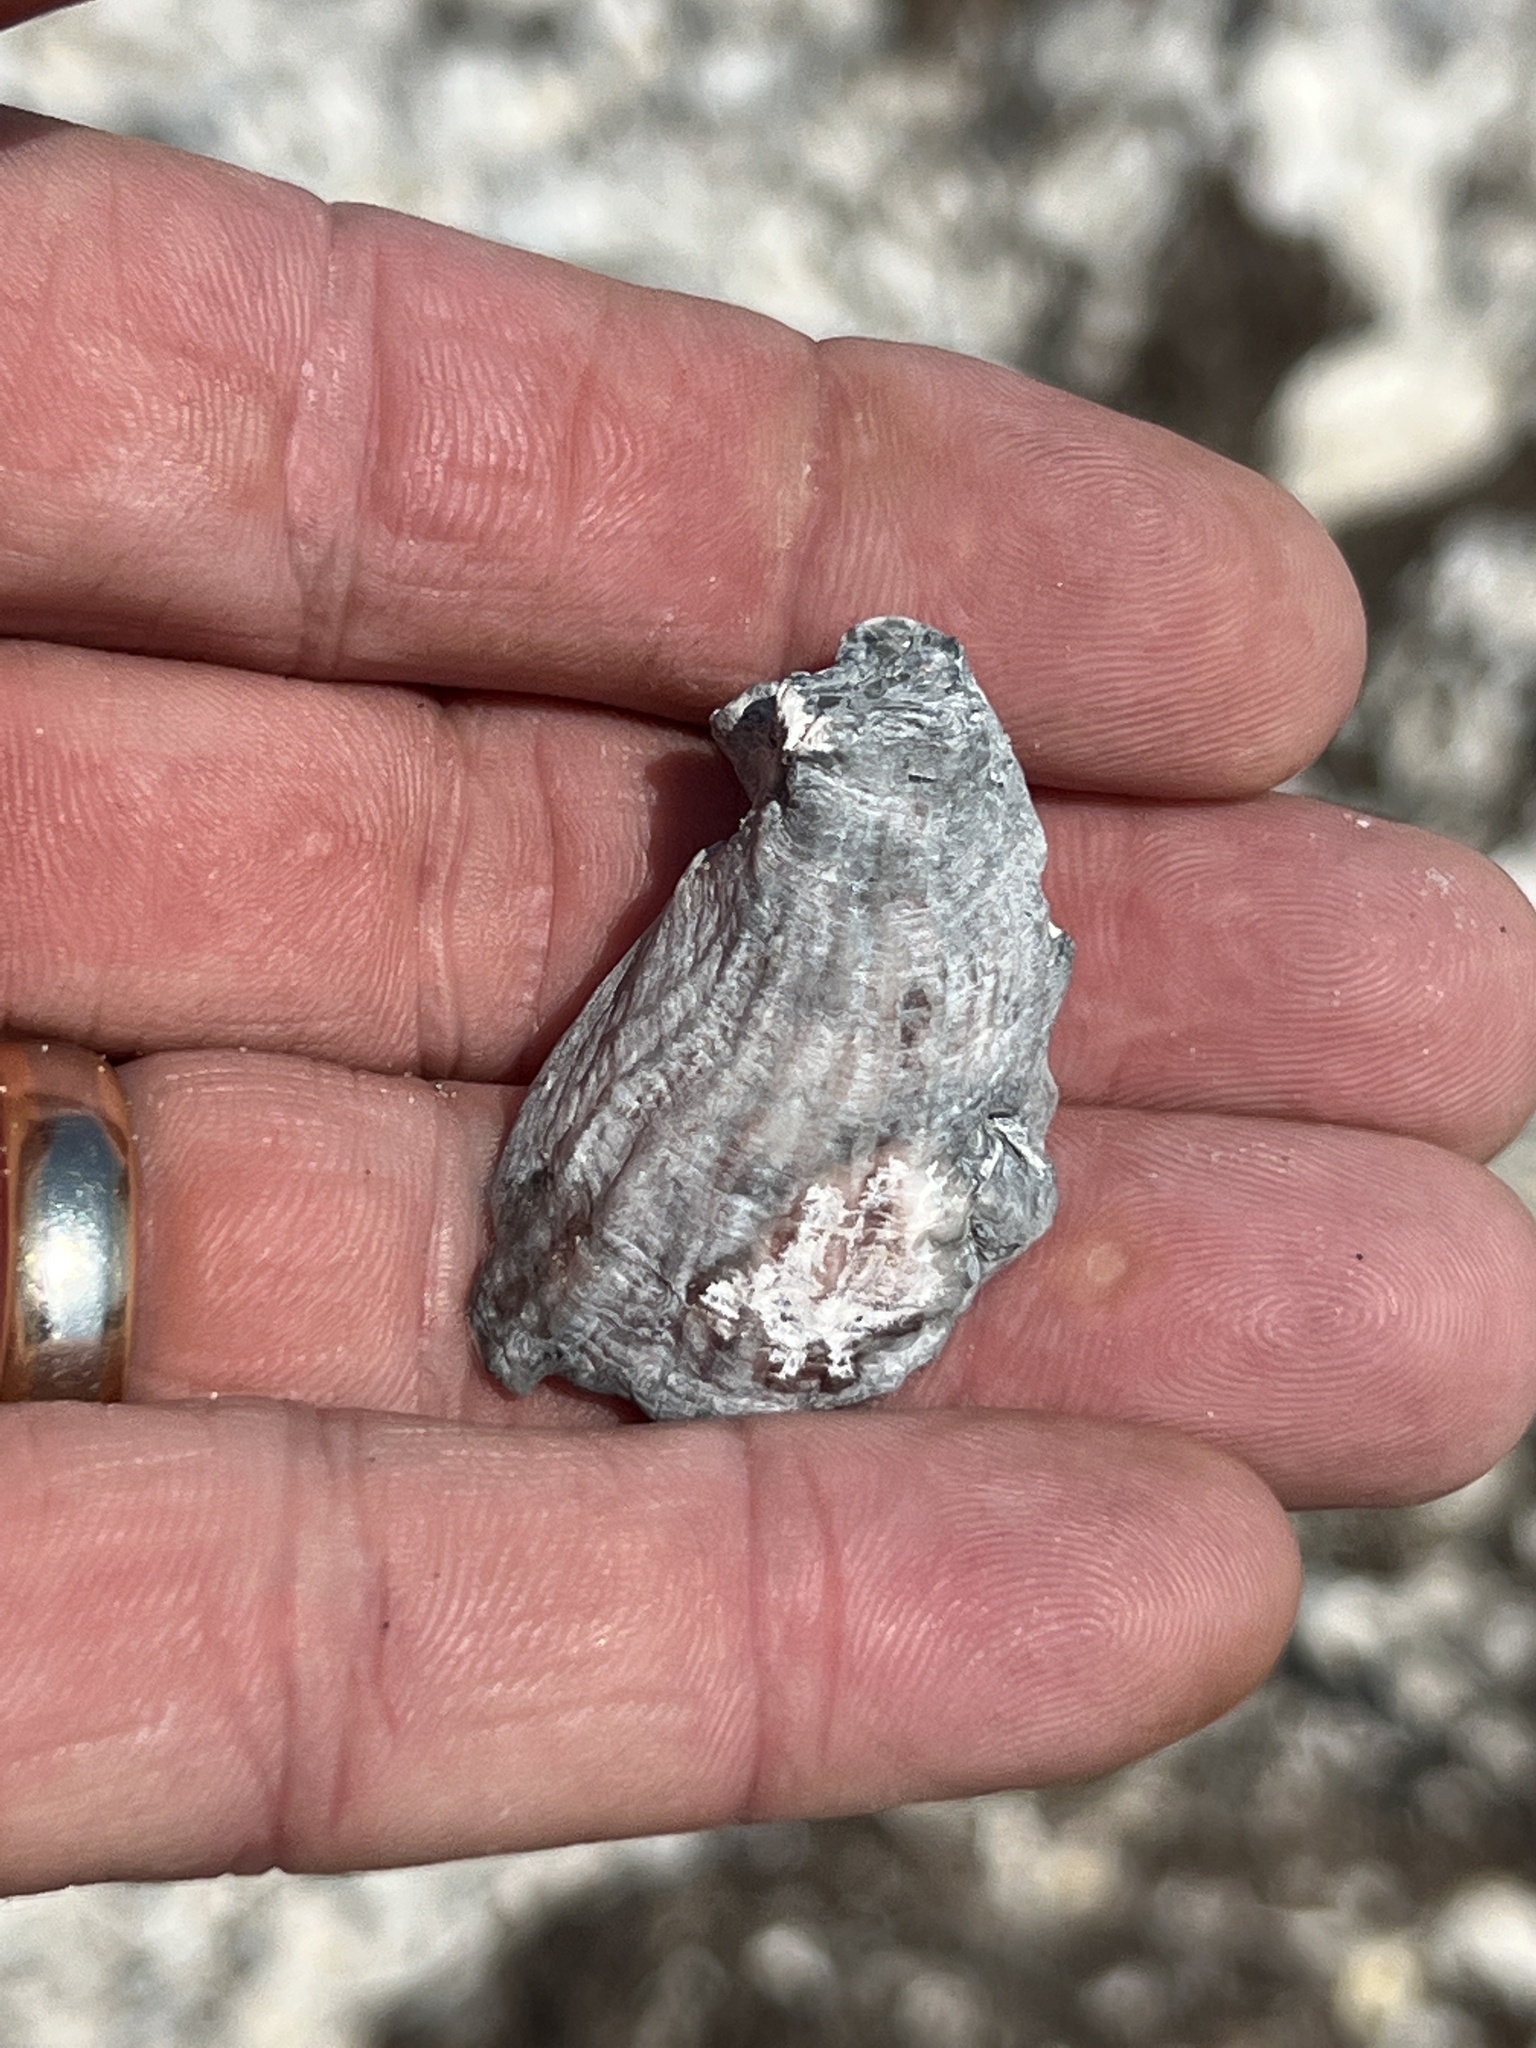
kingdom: Animalia
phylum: Mollusca
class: Bivalvia
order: Ostreida
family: Ostreidae
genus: Crassostrea
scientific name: Crassostrea virginica
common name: American oyster
